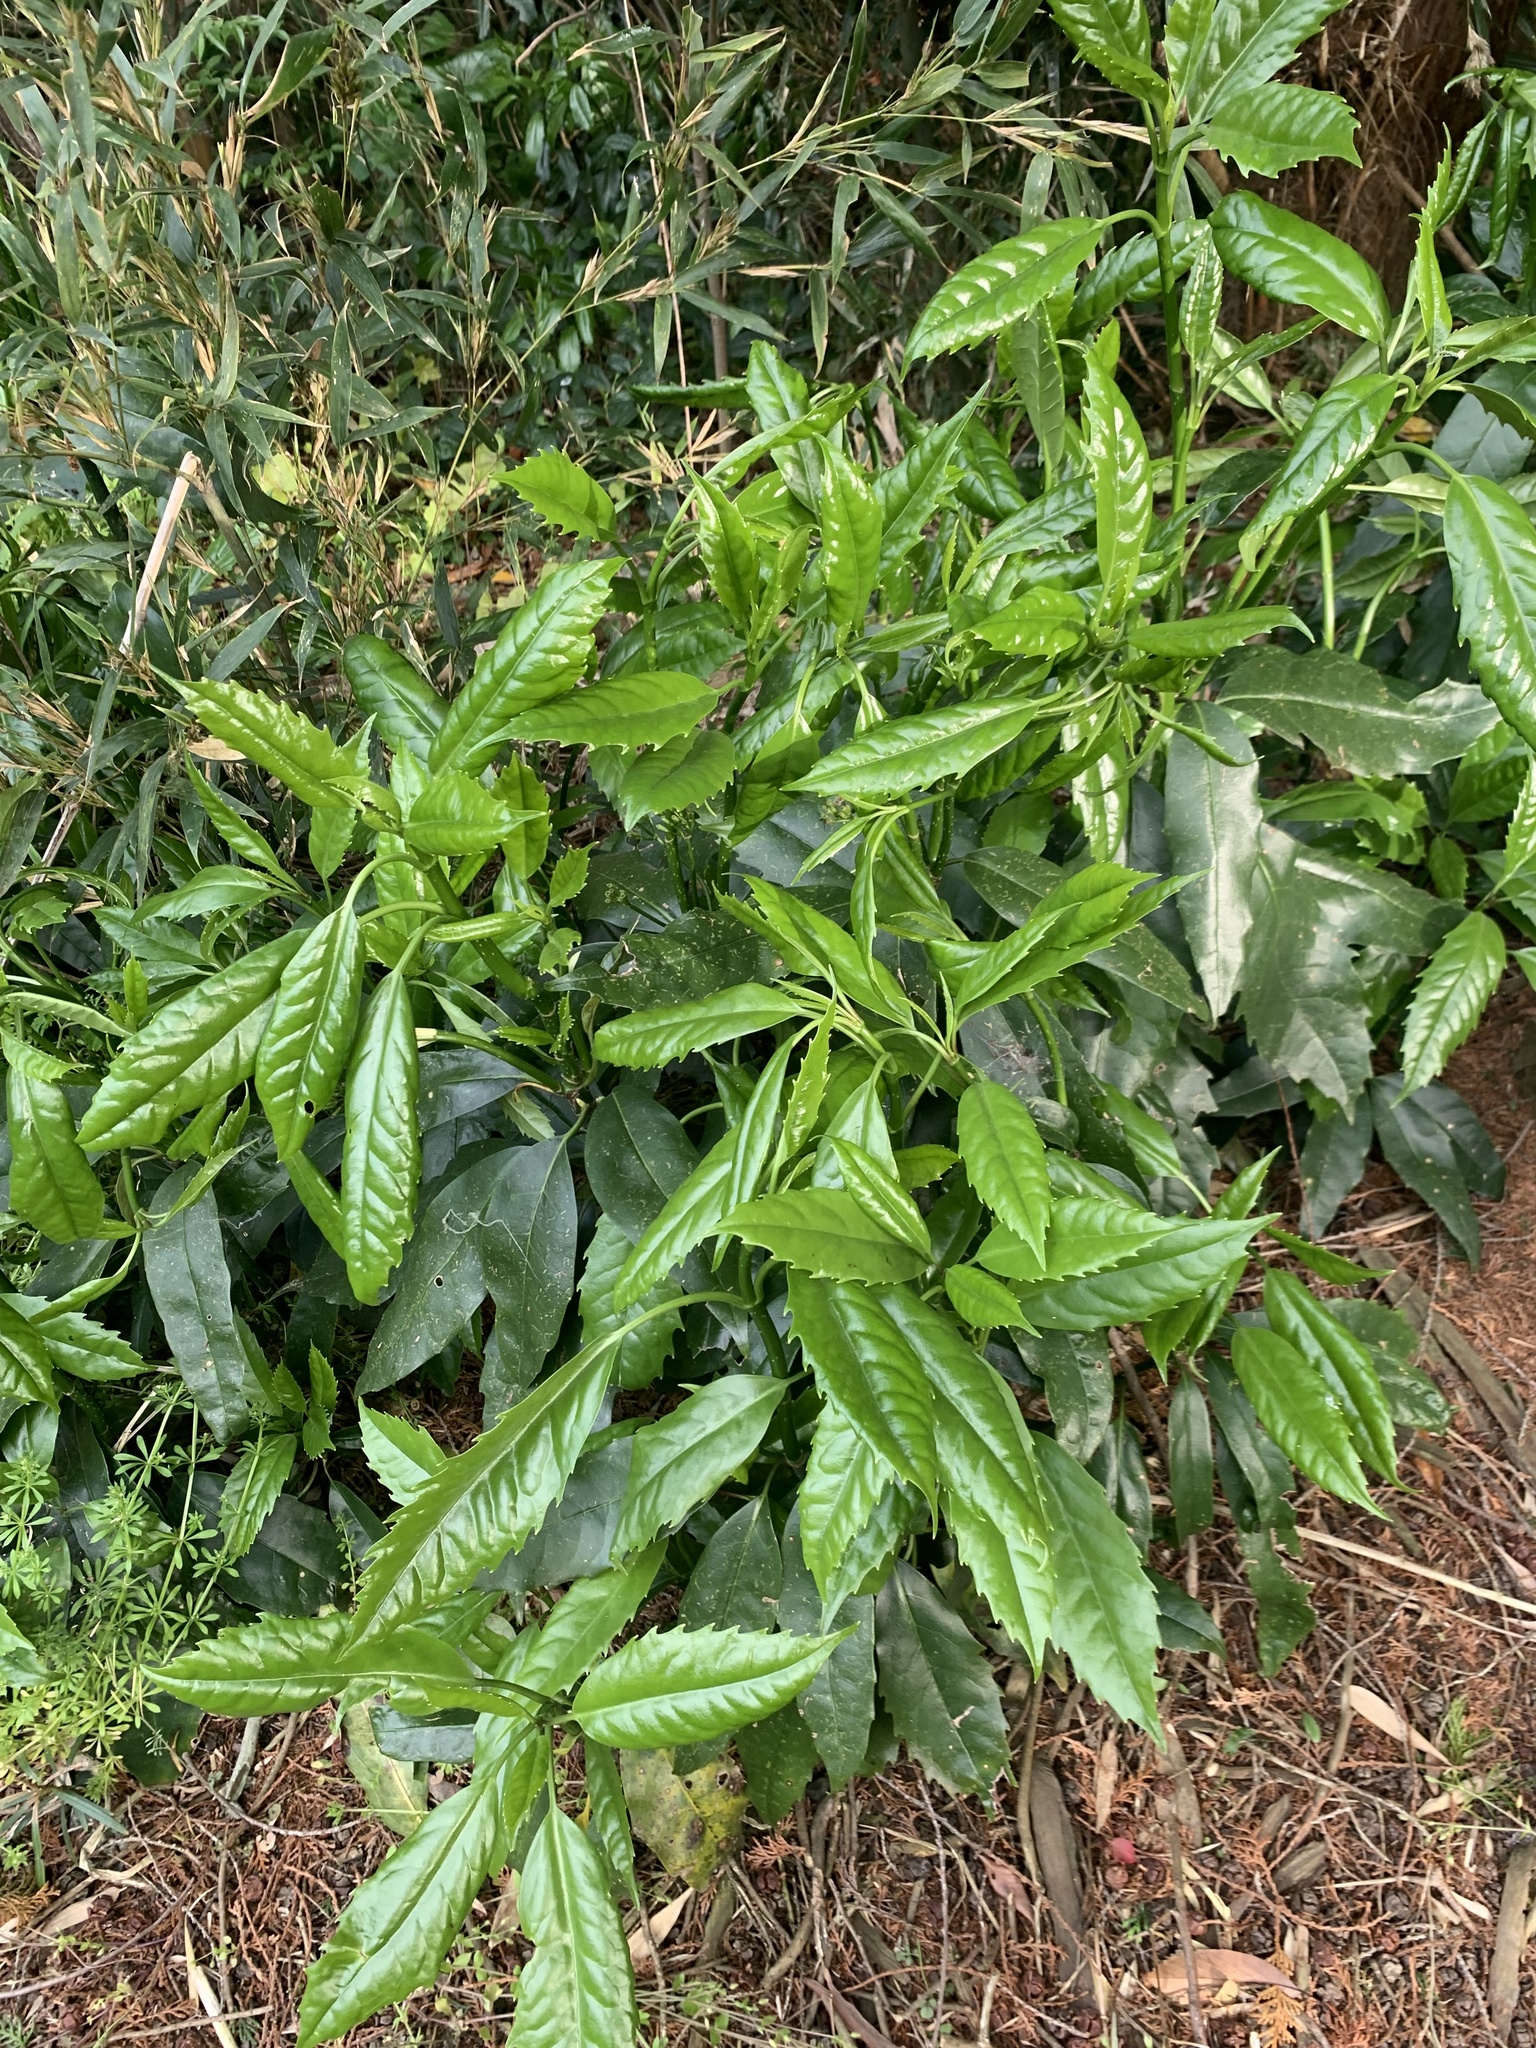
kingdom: Plantae
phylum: Tracheophyta
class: Magnoliopsida
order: Garryales
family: Garryaceae
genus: Aucuba
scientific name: Aucuba japonica
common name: Spotted-laurel
